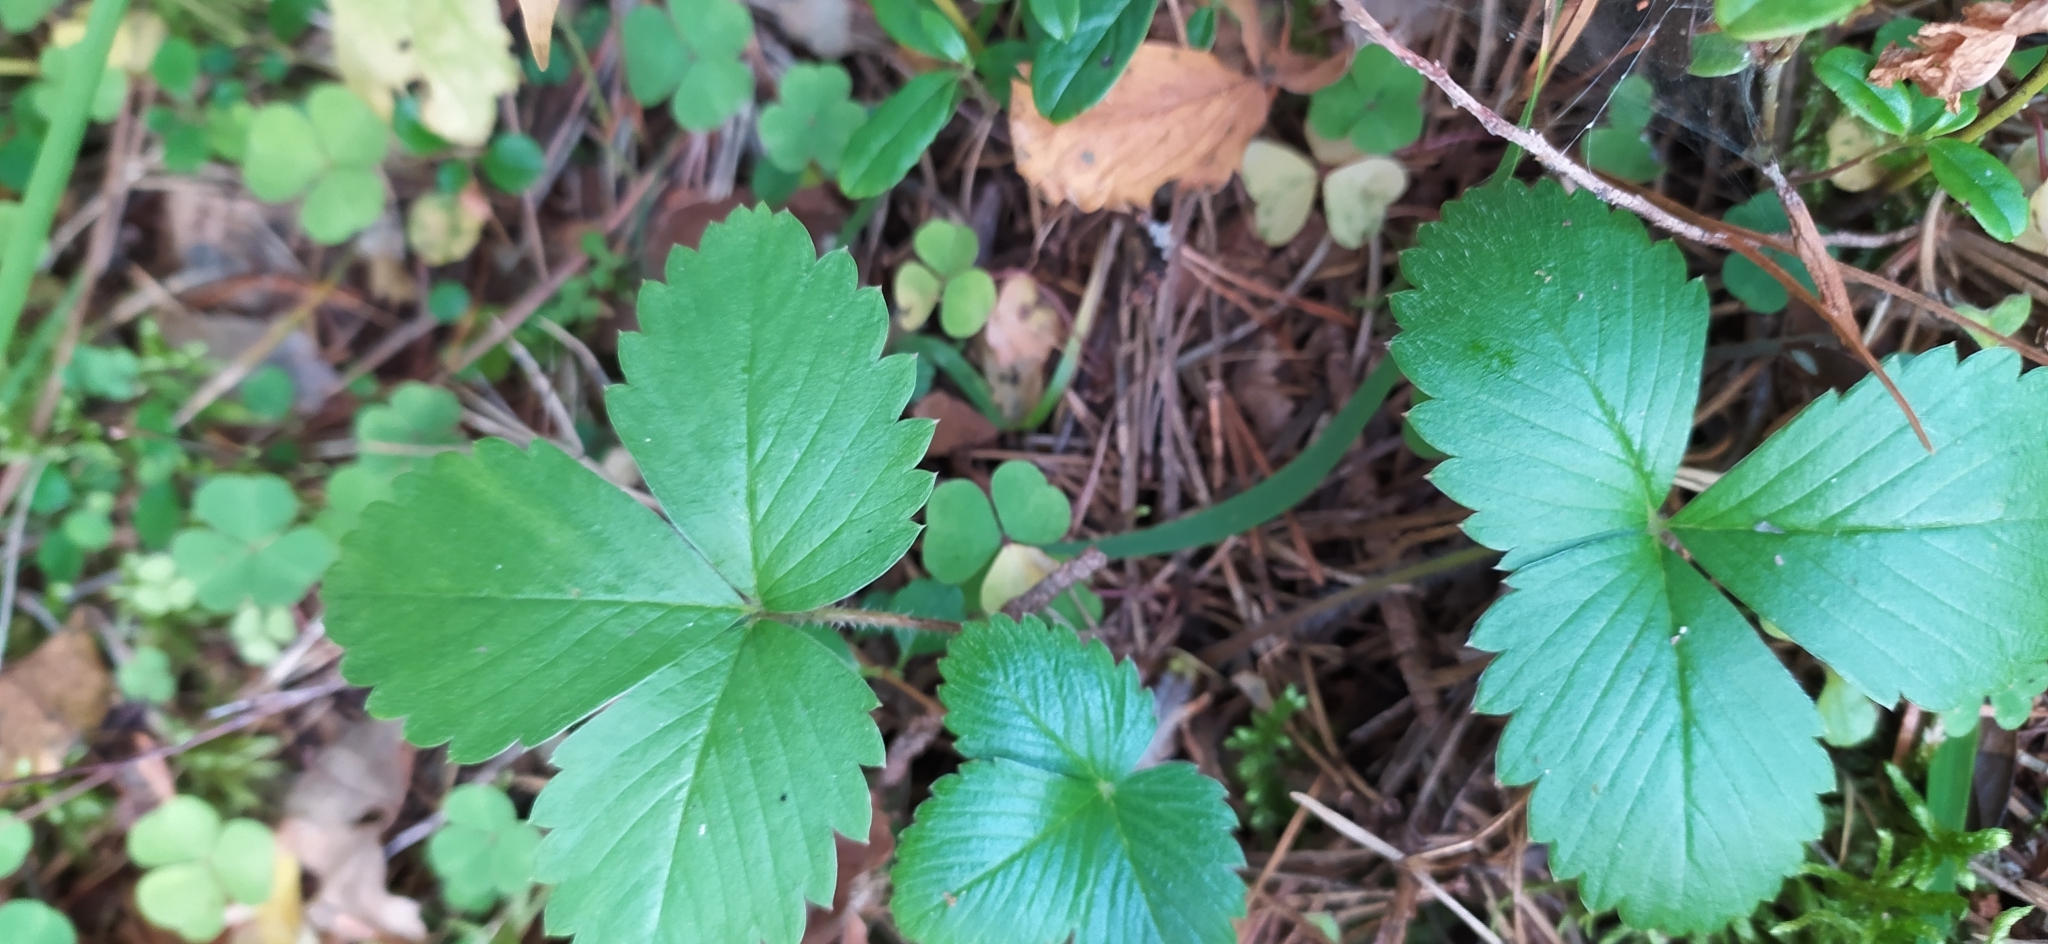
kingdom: Plantae
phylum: Tracheophyta
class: Magnoliopsida
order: Rosales
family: Rosaceae
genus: Fragaria
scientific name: Fragaria vesca
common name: Wild strawberry
